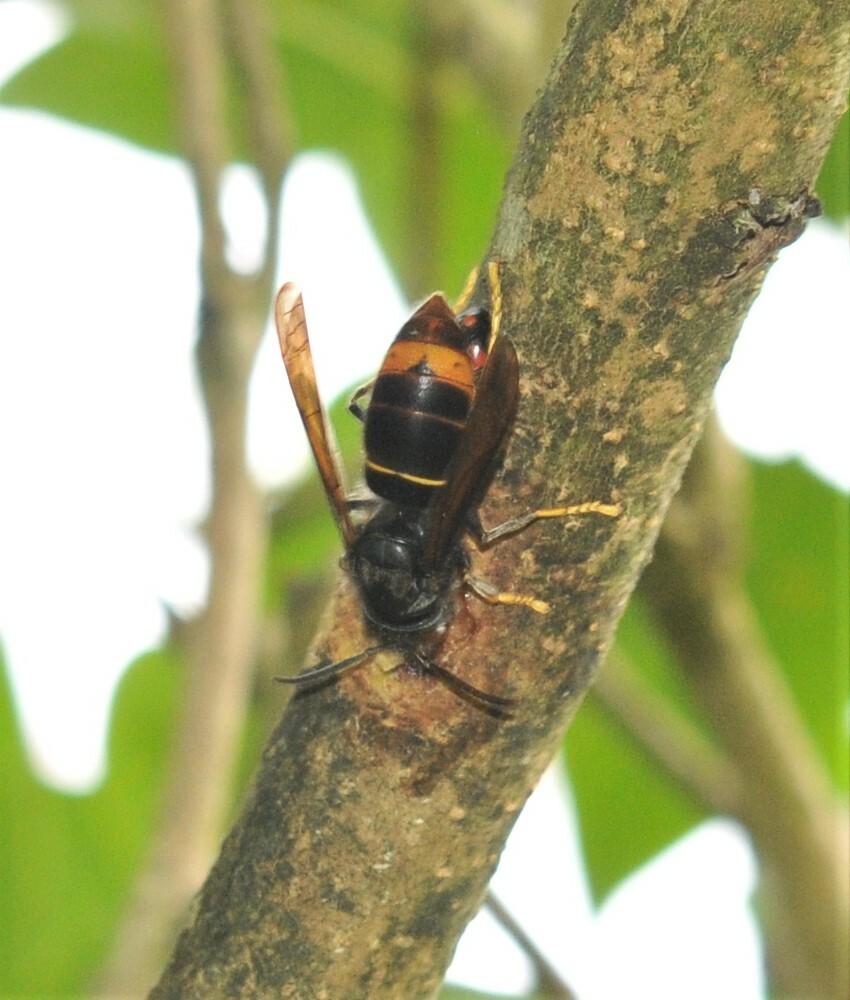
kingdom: Animalia
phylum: Arthropoda
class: Insecta
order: Hymenoptera
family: Vespidae
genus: Vespa
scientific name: Vespa velutina
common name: Asian hornet
